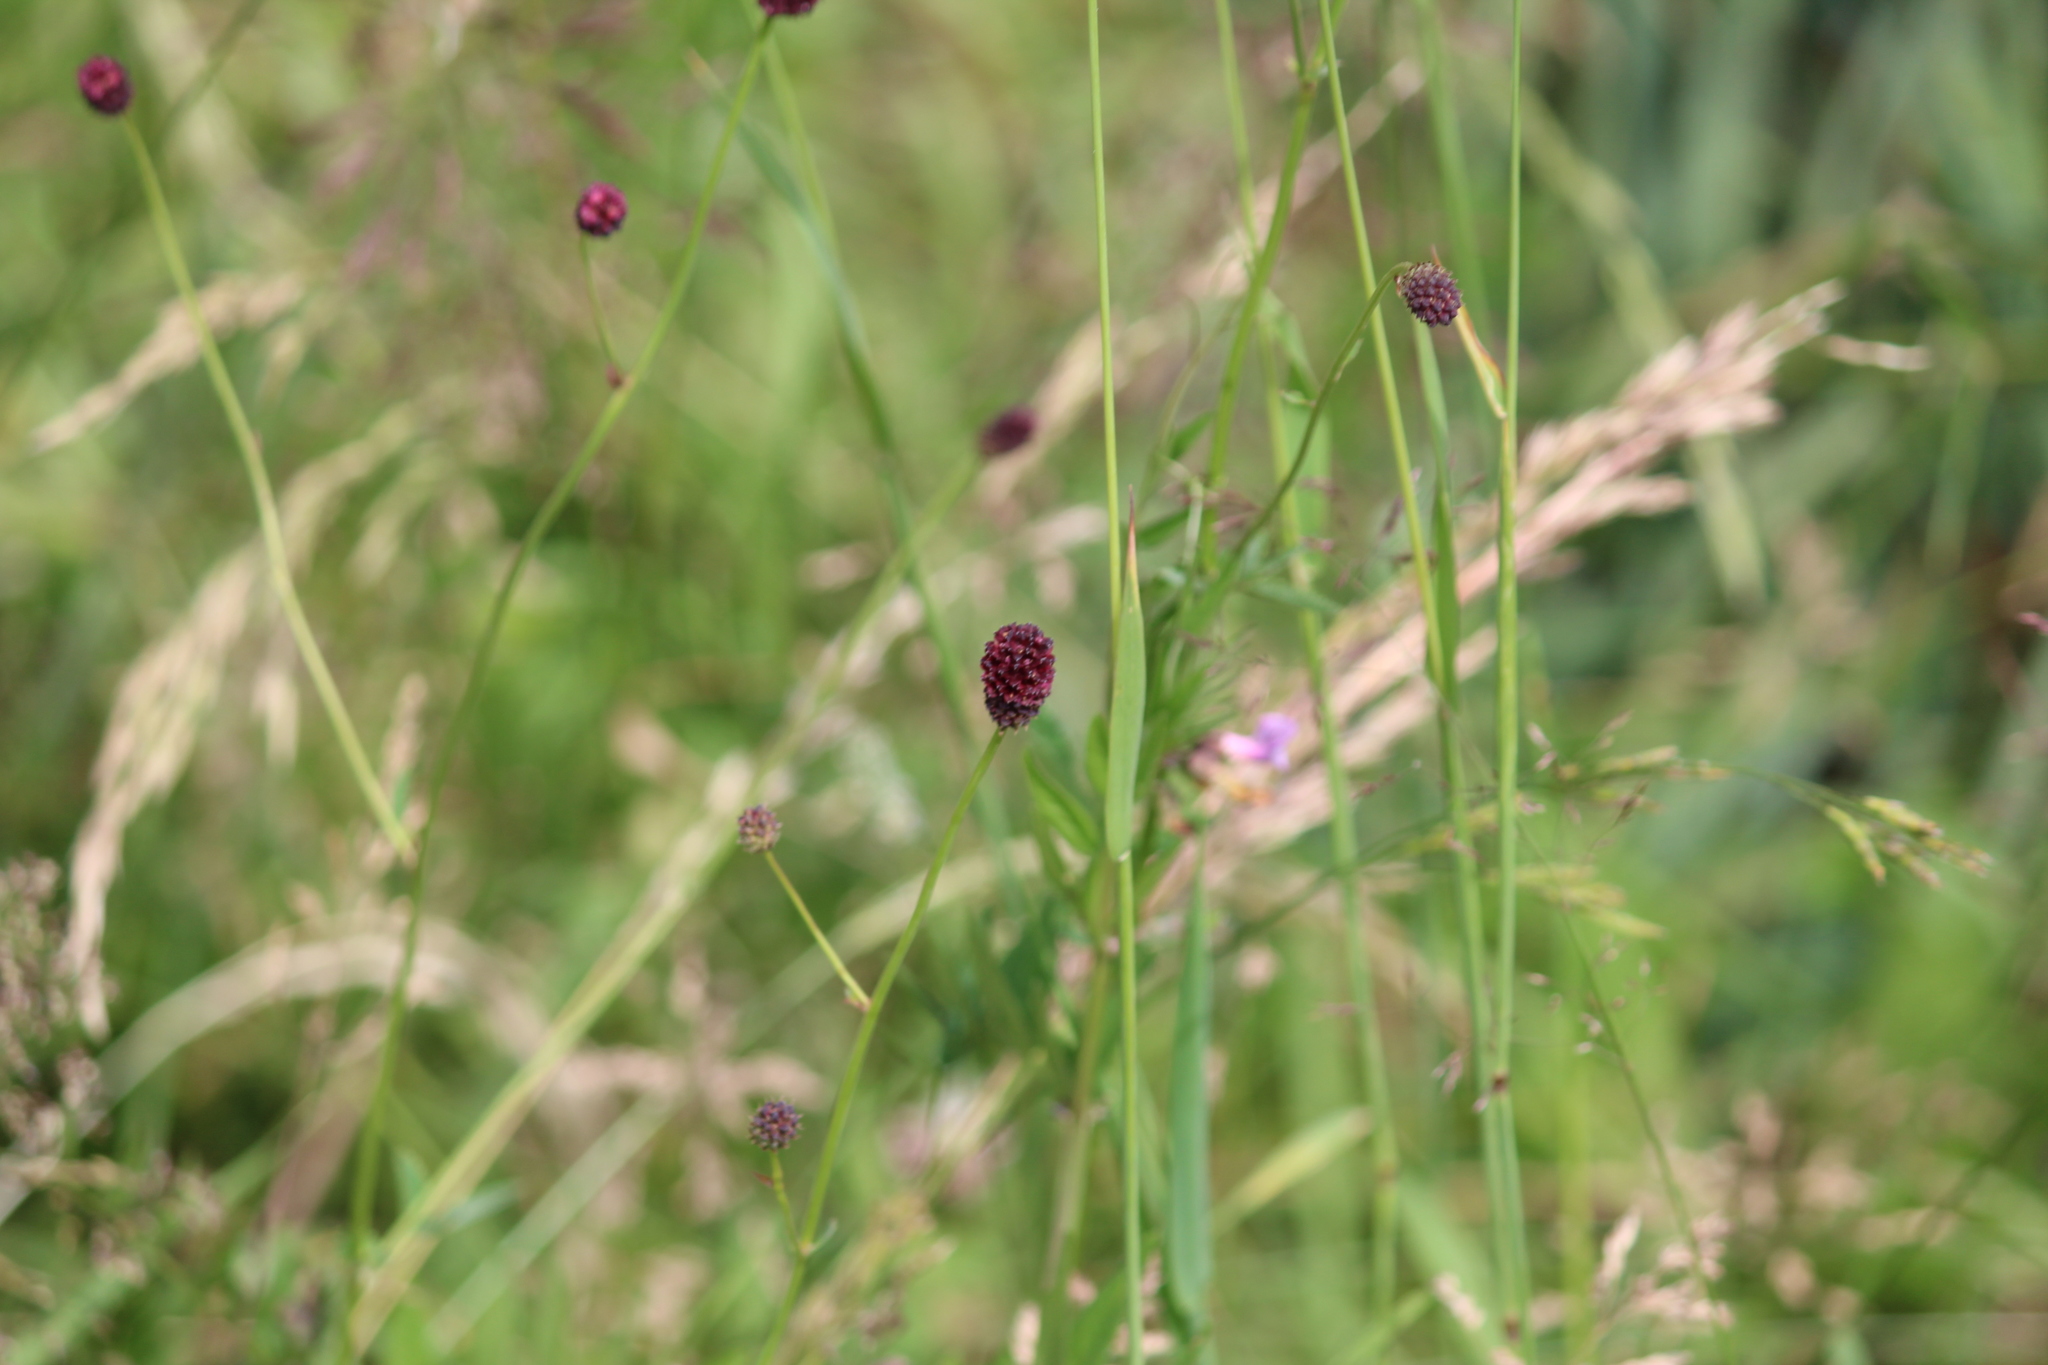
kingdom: Plantae
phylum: Tracheophyta
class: Magnoliopsida
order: Rosales
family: Rosaceae
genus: Sanguisorba
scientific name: Sanguisorba officinalis
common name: Great burnet
